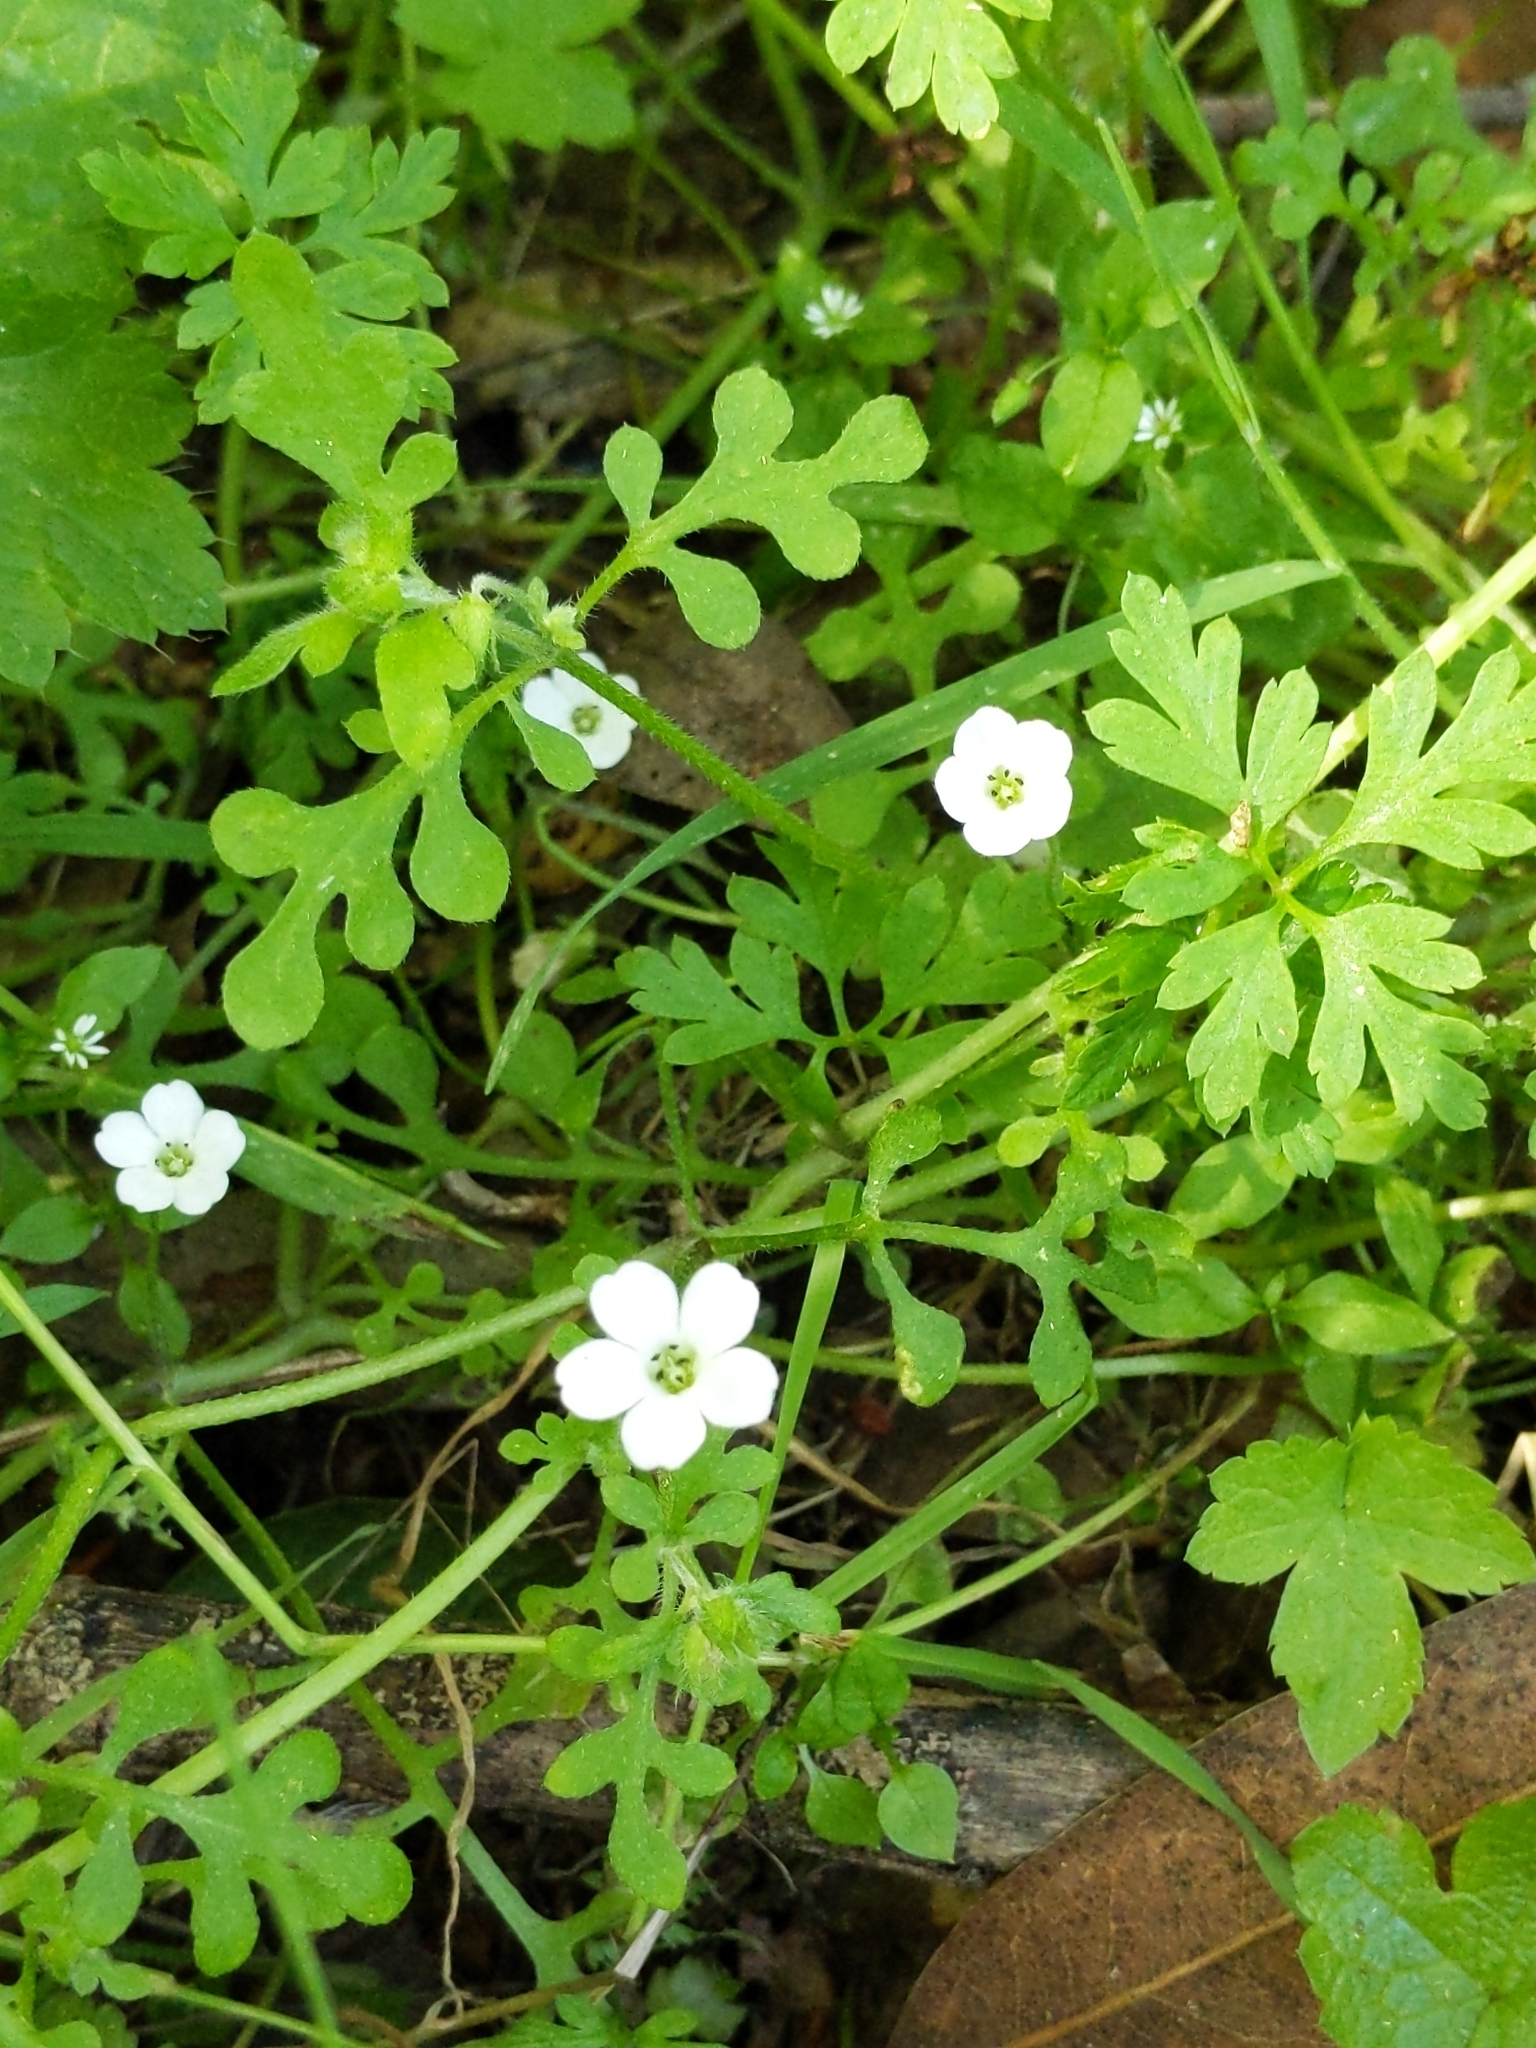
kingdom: Plantae
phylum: Tracheophyta
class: Magnoliopsida
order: Boraginales
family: Hydrophyllaceae
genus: Nemophila
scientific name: Nemophila heterophylla
